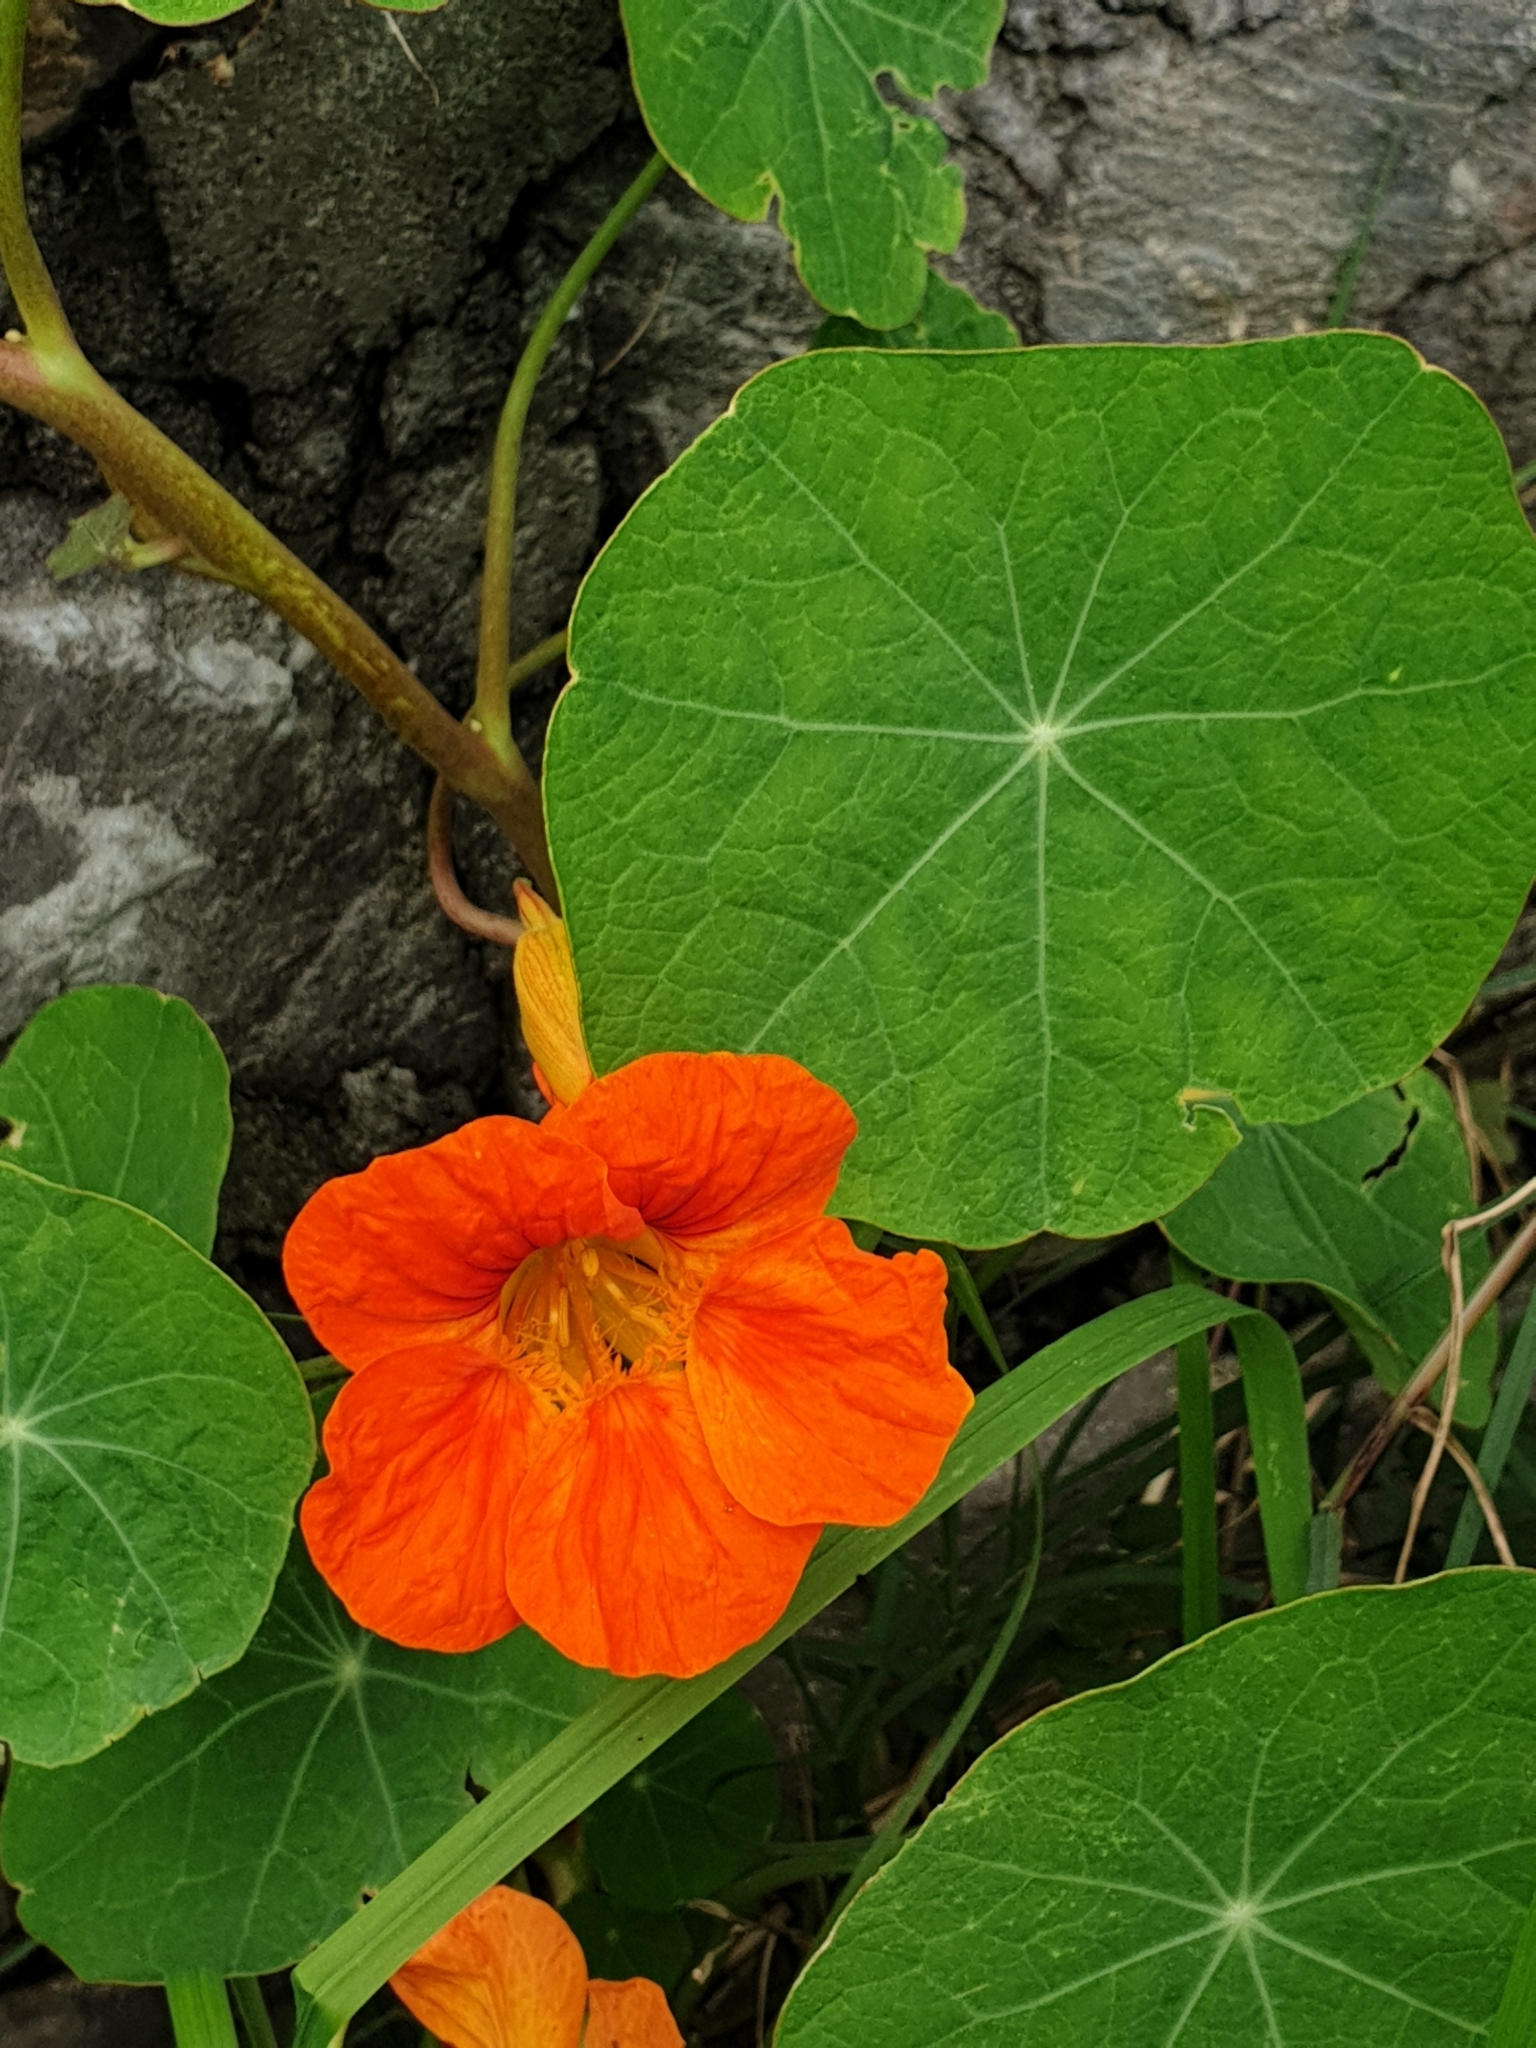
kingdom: Plantae
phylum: Tracheophyta
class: Magnoliopsida
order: Brassicales
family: Tropaeolaceae
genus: Tropaeolum
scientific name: Tropaeolum majus
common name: Nasturtium
